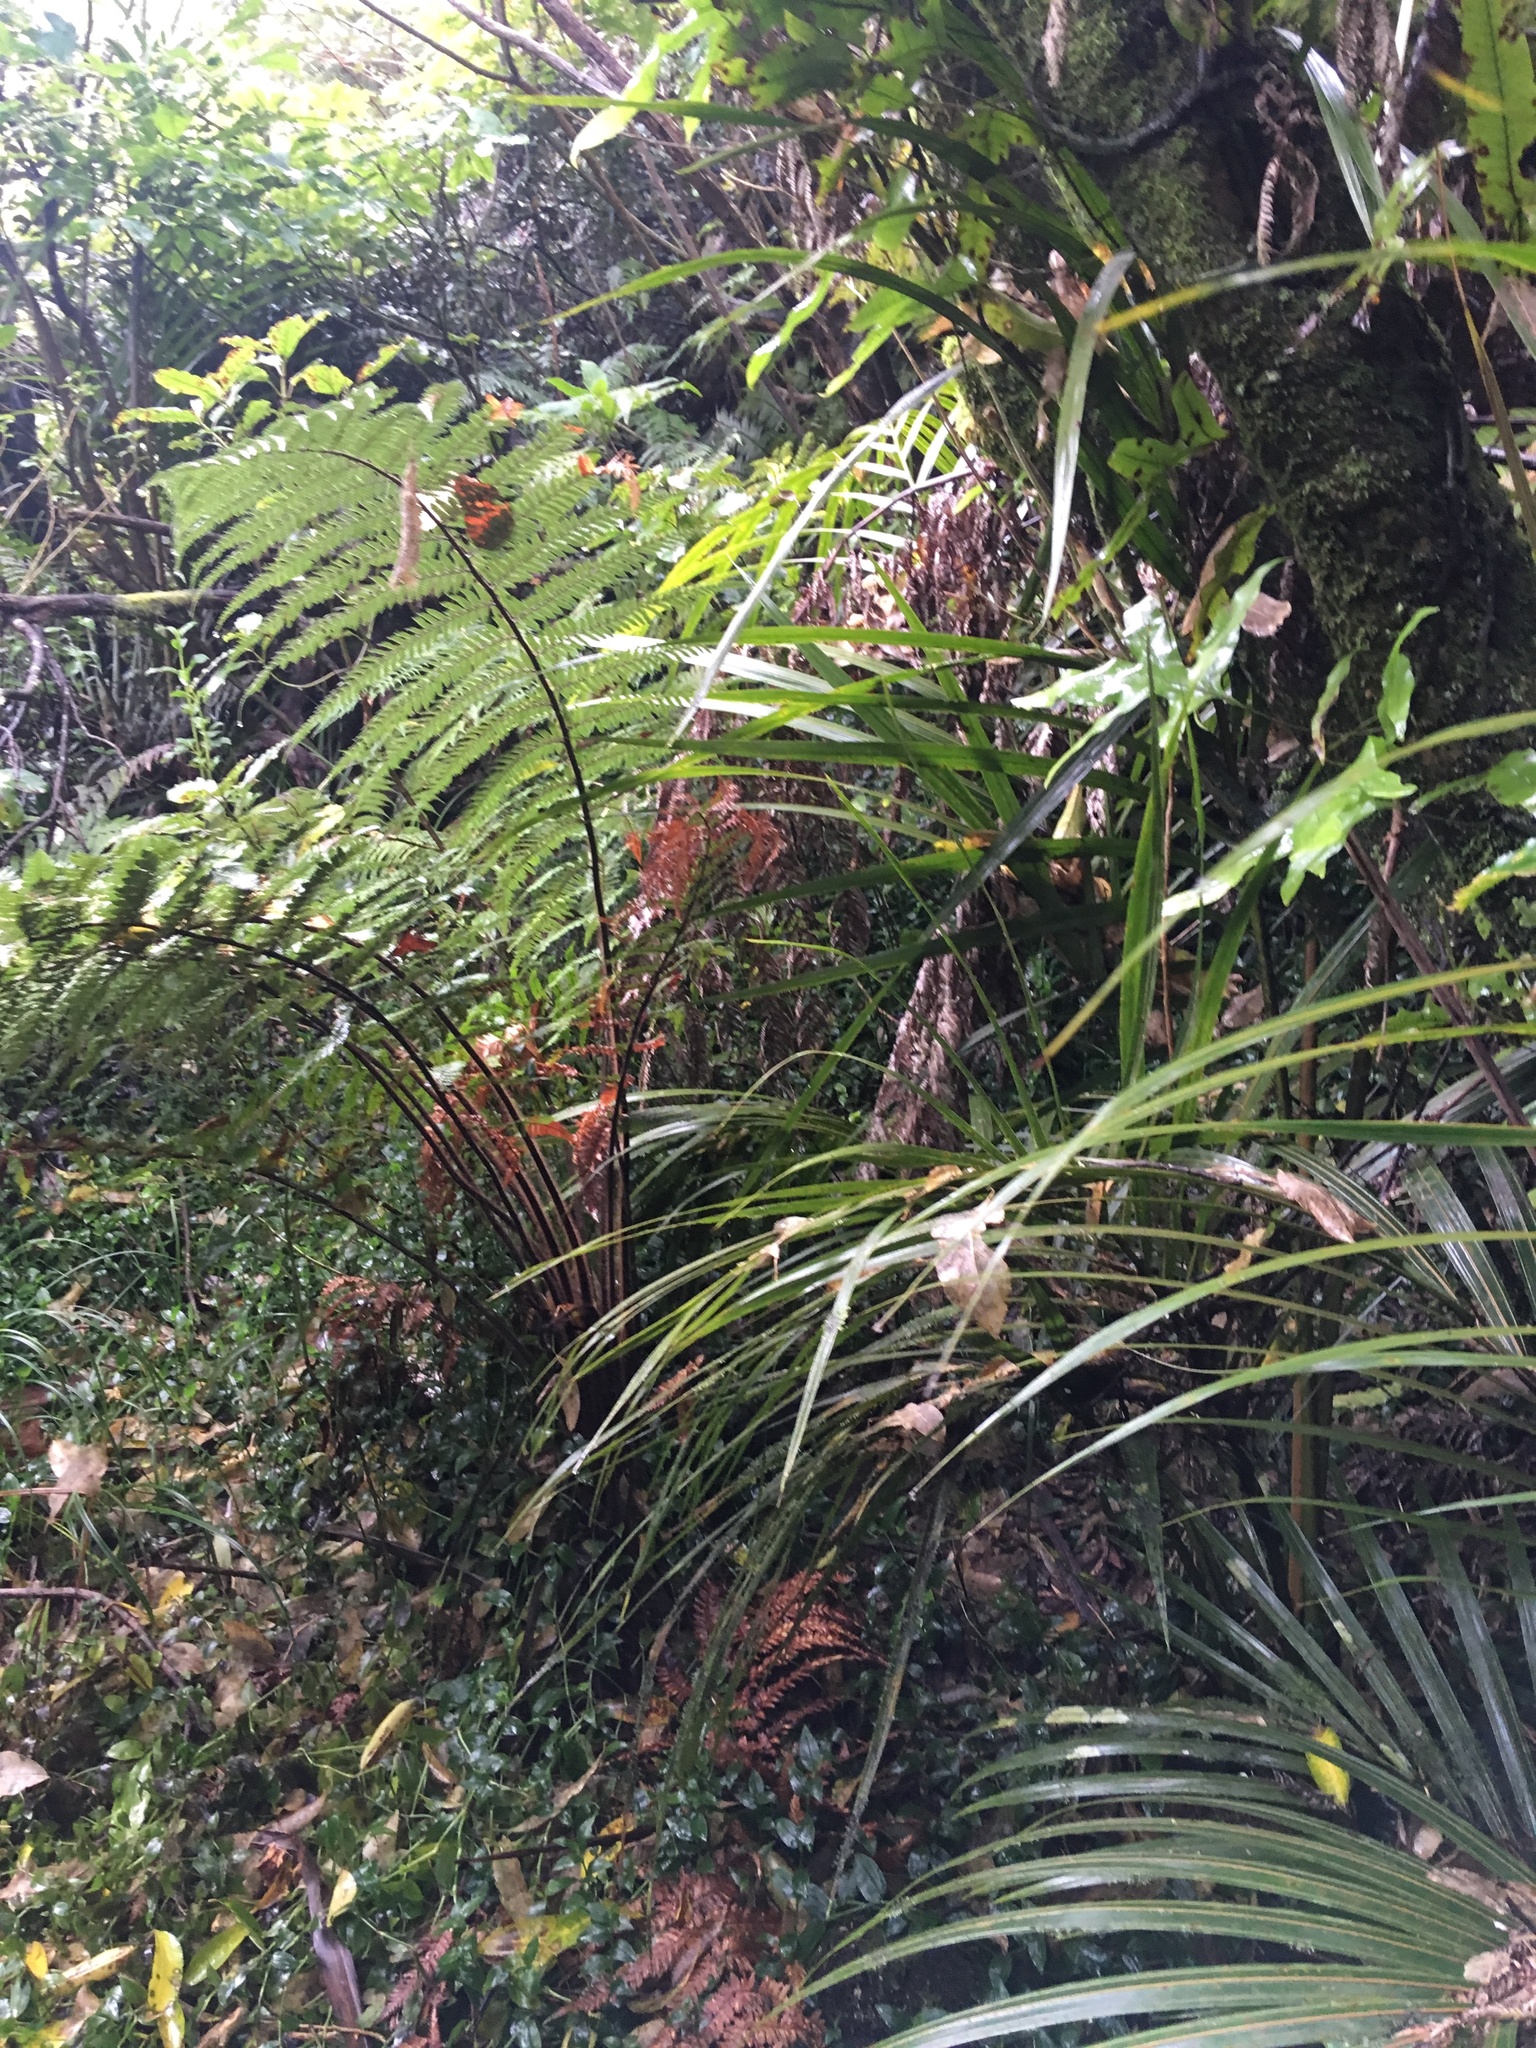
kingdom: Plantae
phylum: Tracheophyta
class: Polypodiopsida
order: Polypodiales
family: Polypodiaceae
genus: Lecanopteris
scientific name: Lecanopteris pustulata
